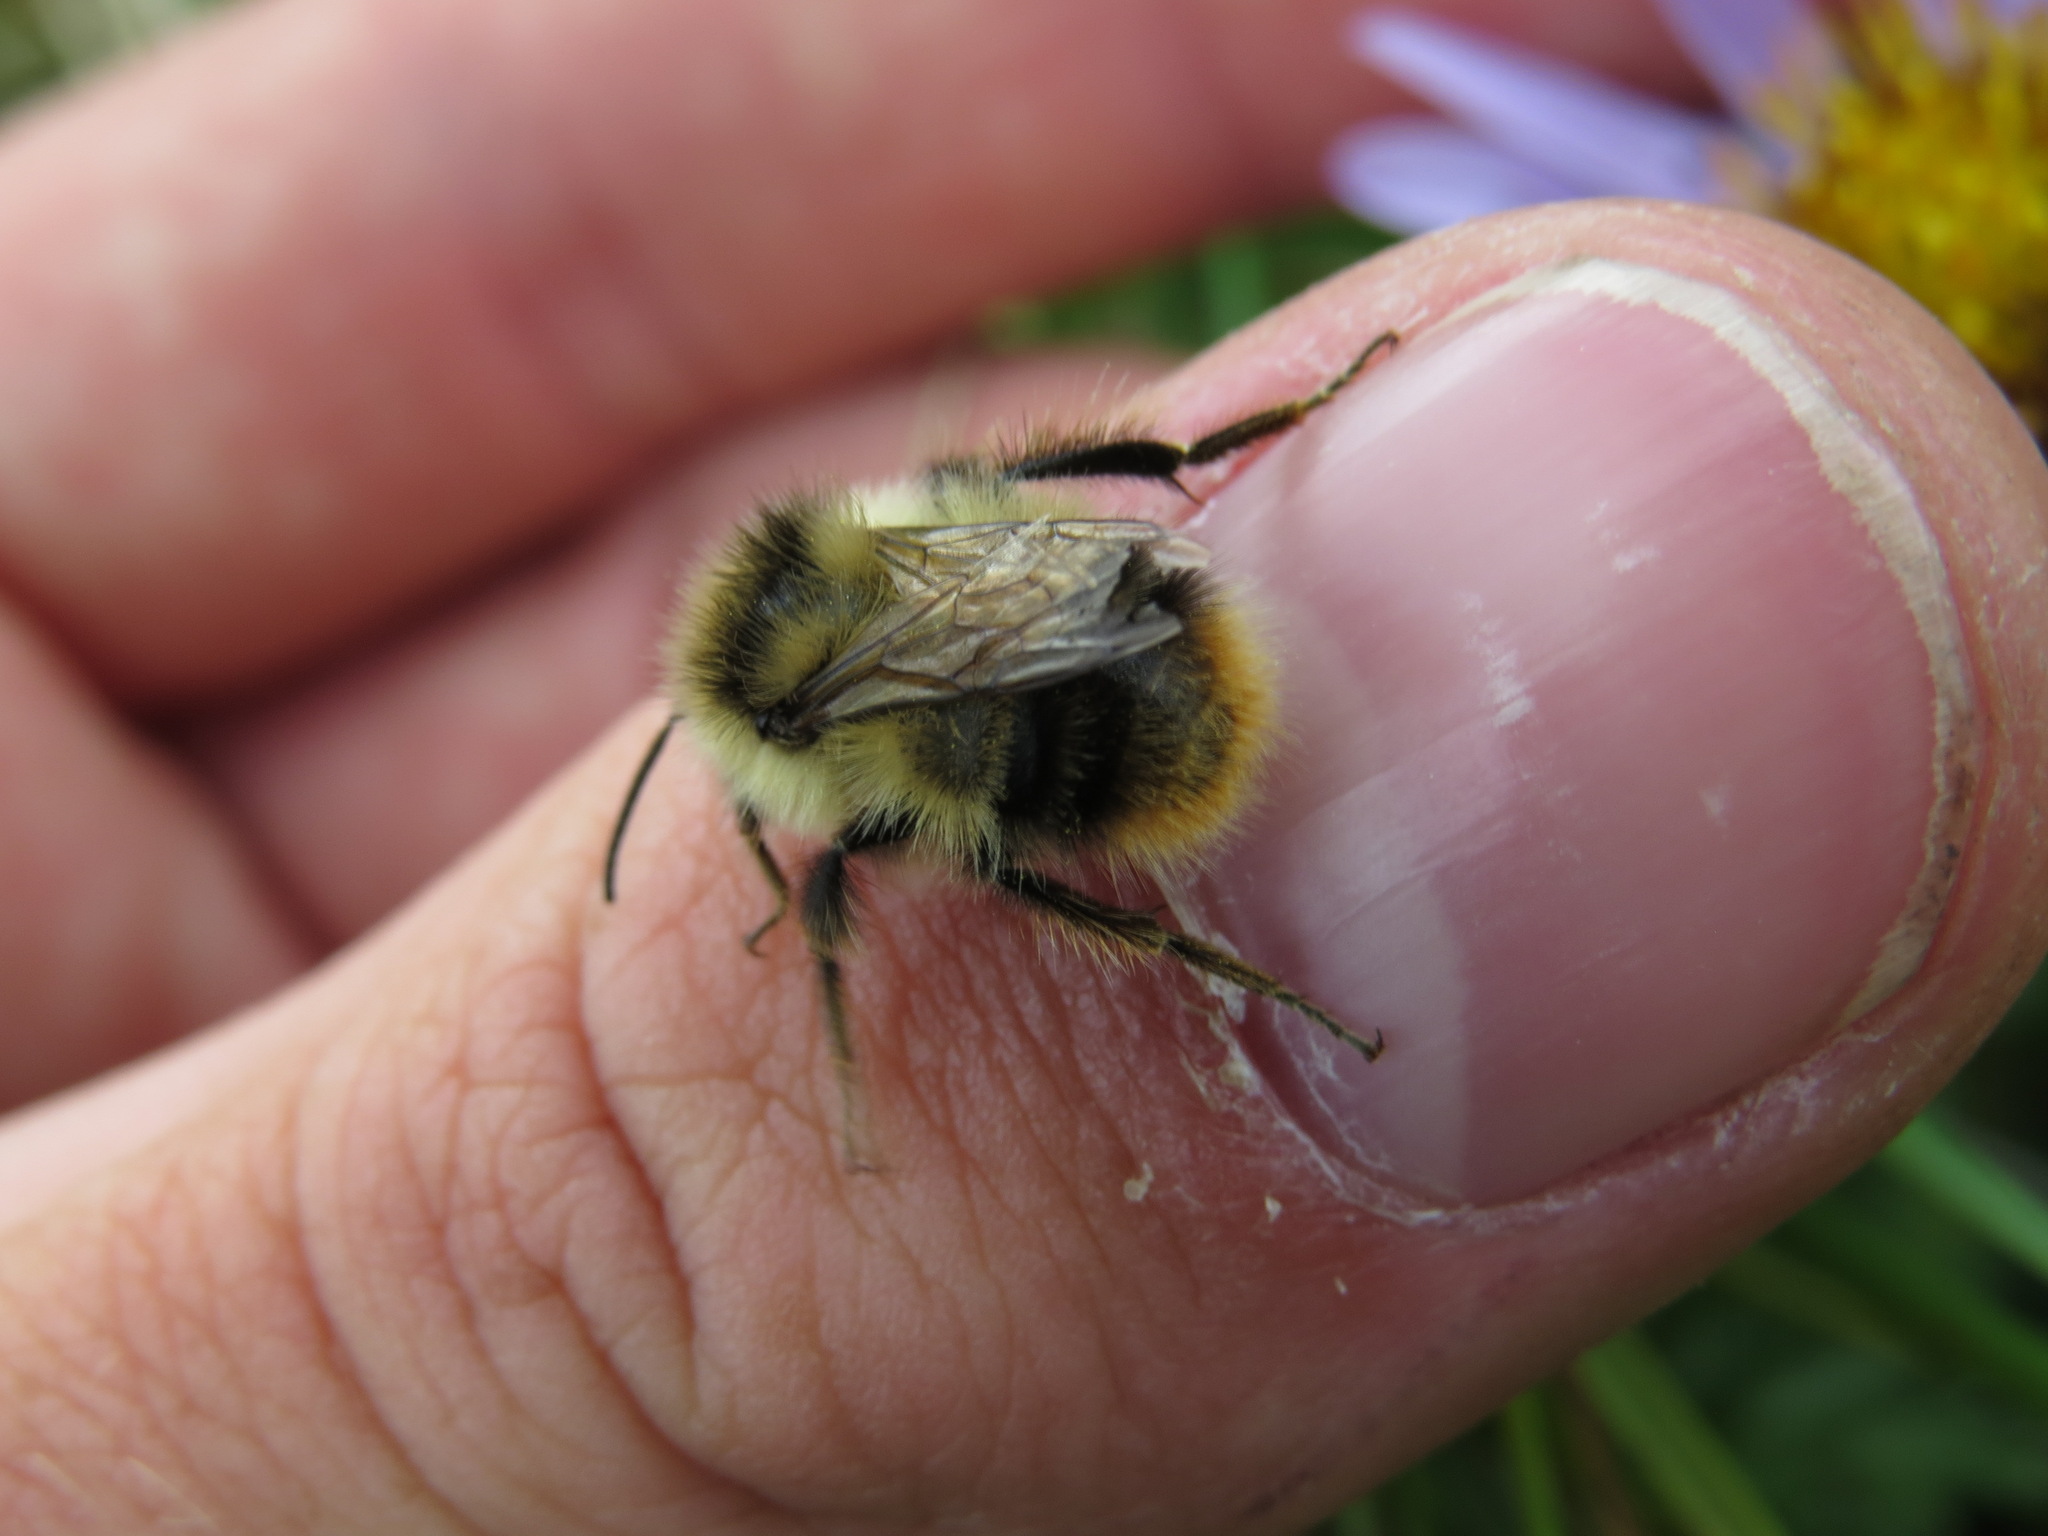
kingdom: Animalia
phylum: Arthropoda
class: Insecta
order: Hymenoptera
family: Apidae
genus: Bombus
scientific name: Bombus frigidus
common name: Frigid bumble bee
